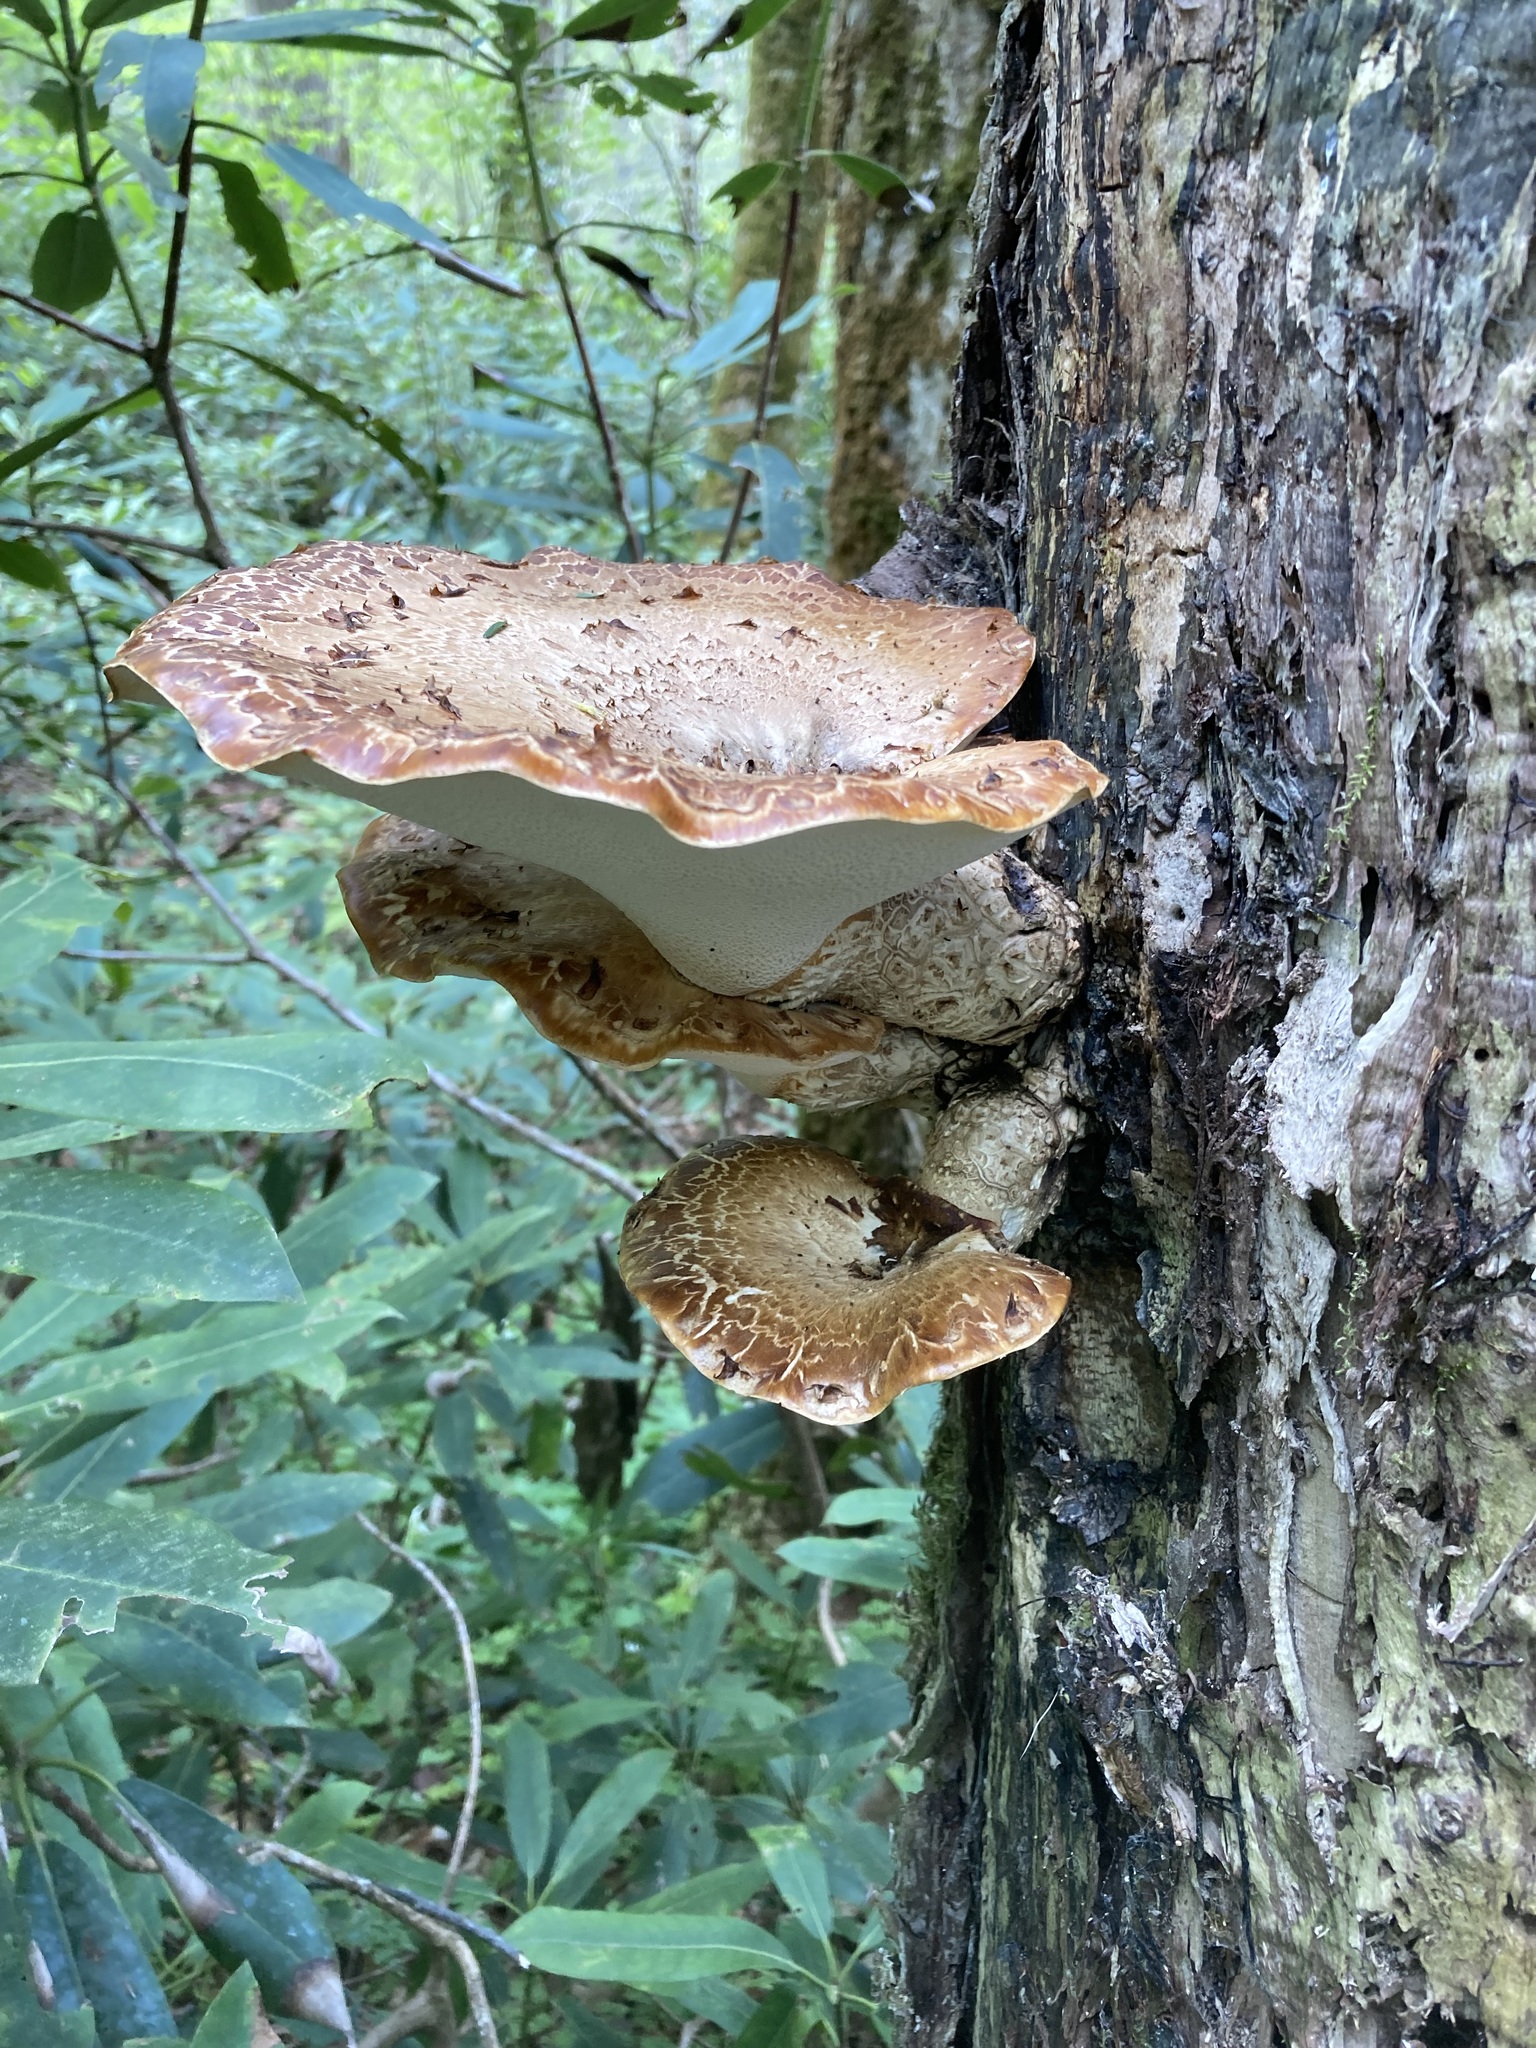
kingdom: Fungi
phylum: Basidiomycota
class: Agaricomycetes
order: Polyporales
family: Polyporaceae
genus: Cerioporus
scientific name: Cerioporus squamosus
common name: Dryad's saddle
